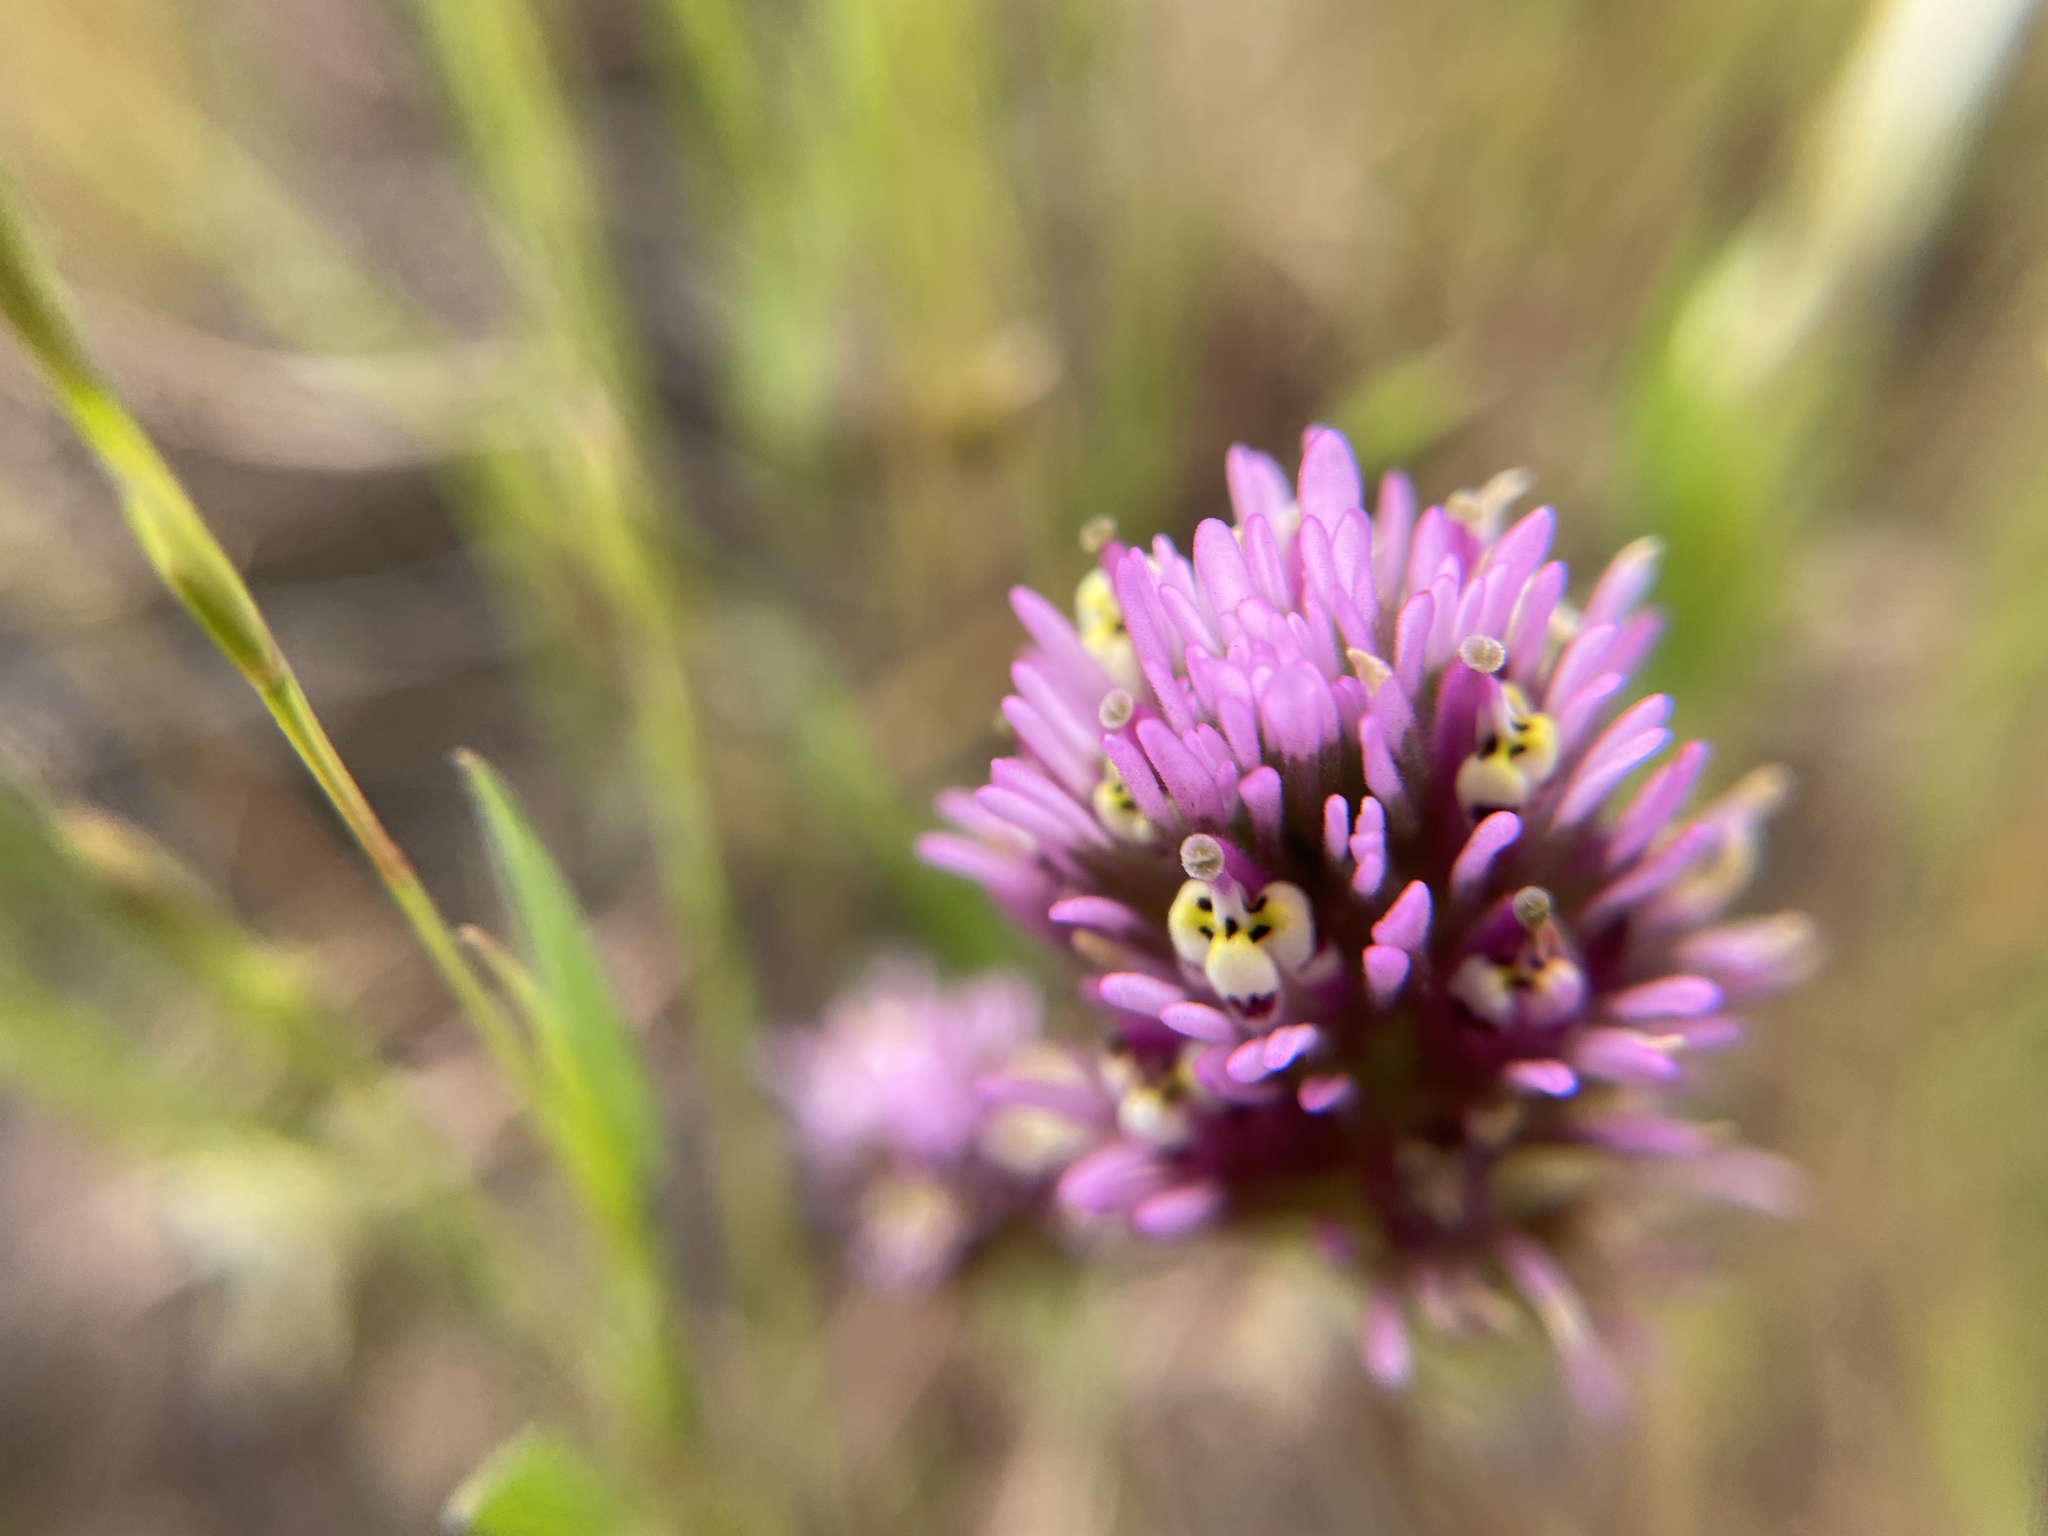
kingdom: Plantae
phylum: Tracheophyta
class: Magnoliopsida
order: Lamiales
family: Orobanchaceae
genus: Castilleja
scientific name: Castilleja densiflora
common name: Dense-flower indian paintbrush
